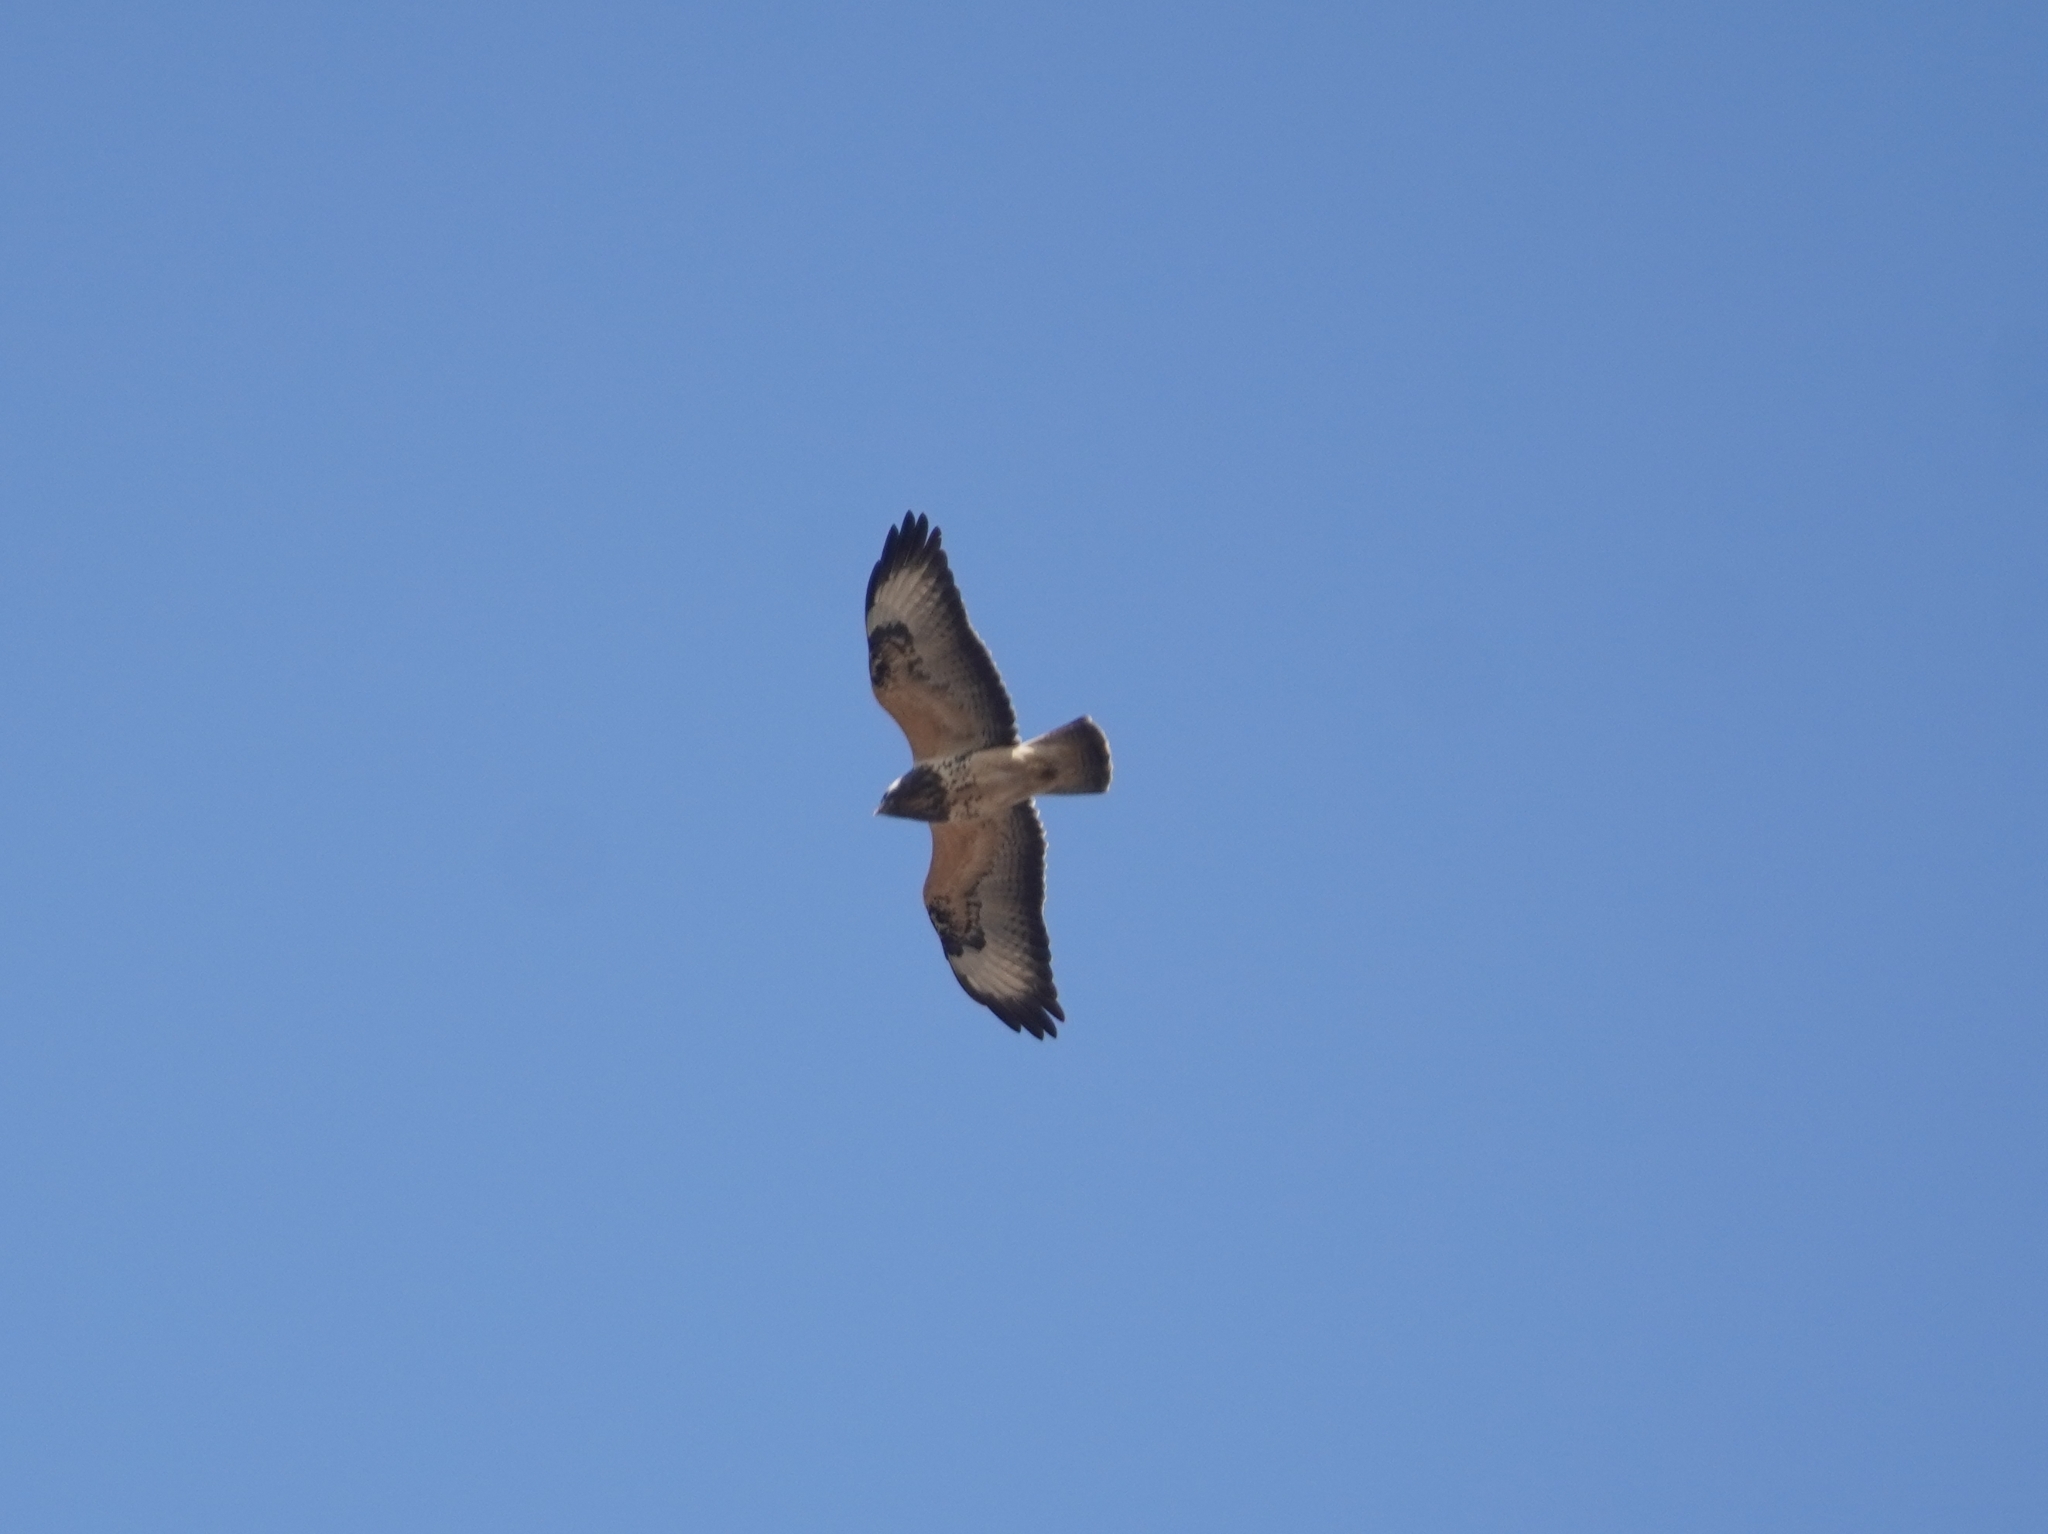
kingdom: Animalia
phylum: Chordata
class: Aves
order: Accipitriformes
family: Accipitridae
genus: Buteo
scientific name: Buteo buteo
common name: Common buzzard
